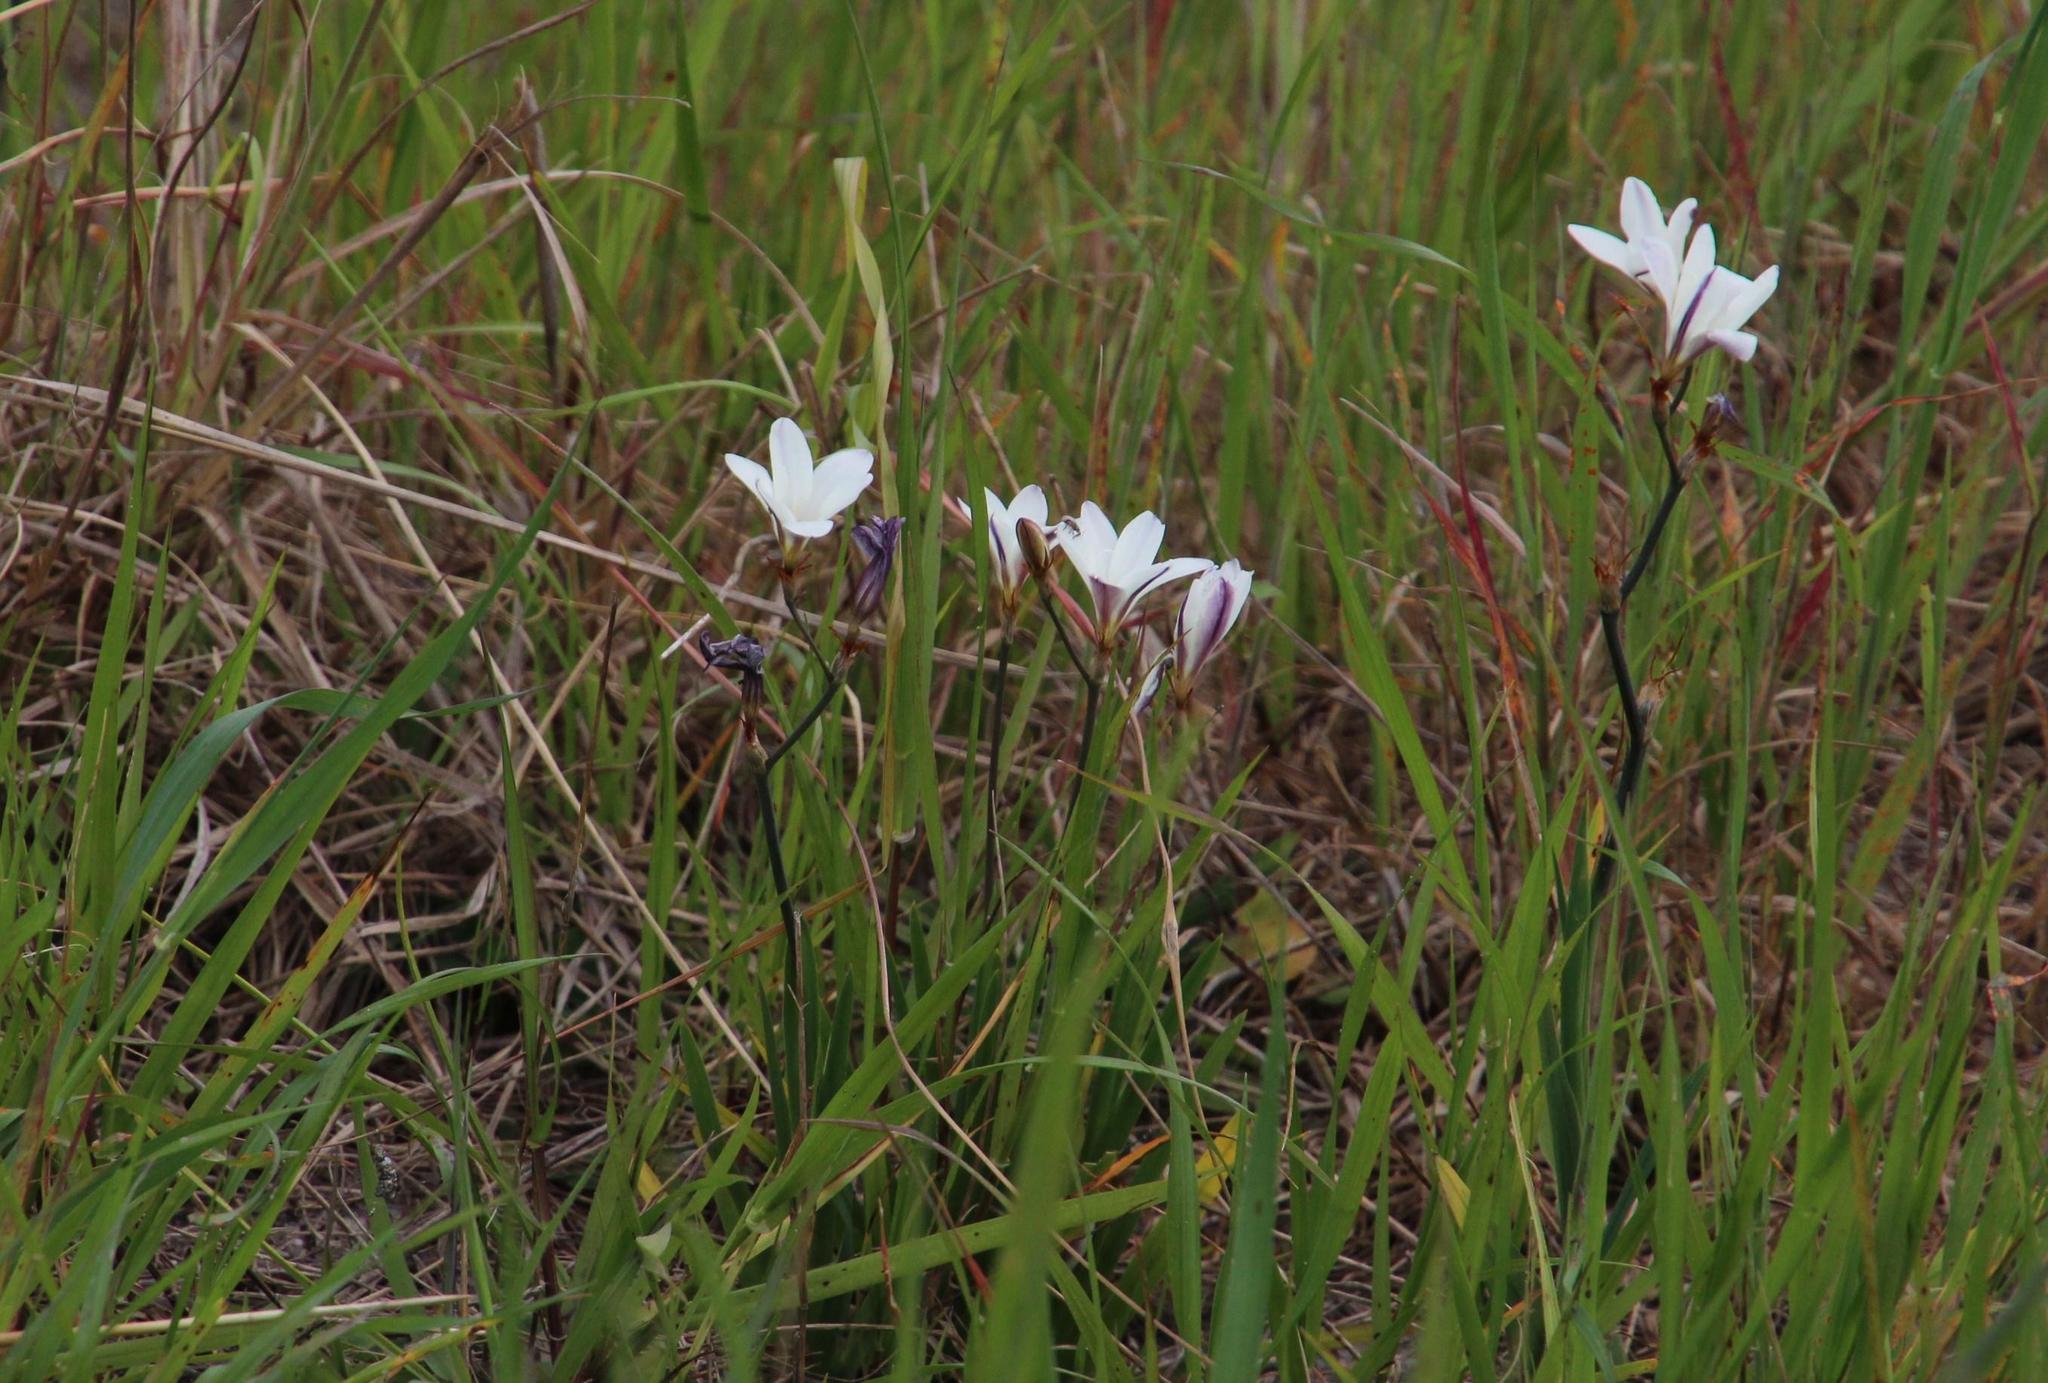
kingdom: Plantae
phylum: Tracheophyta
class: Liliopsida
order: Asparagales
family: Iridaceae
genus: Sparaxis
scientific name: Sparaxis bulbifera
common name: Harlequin-flower
